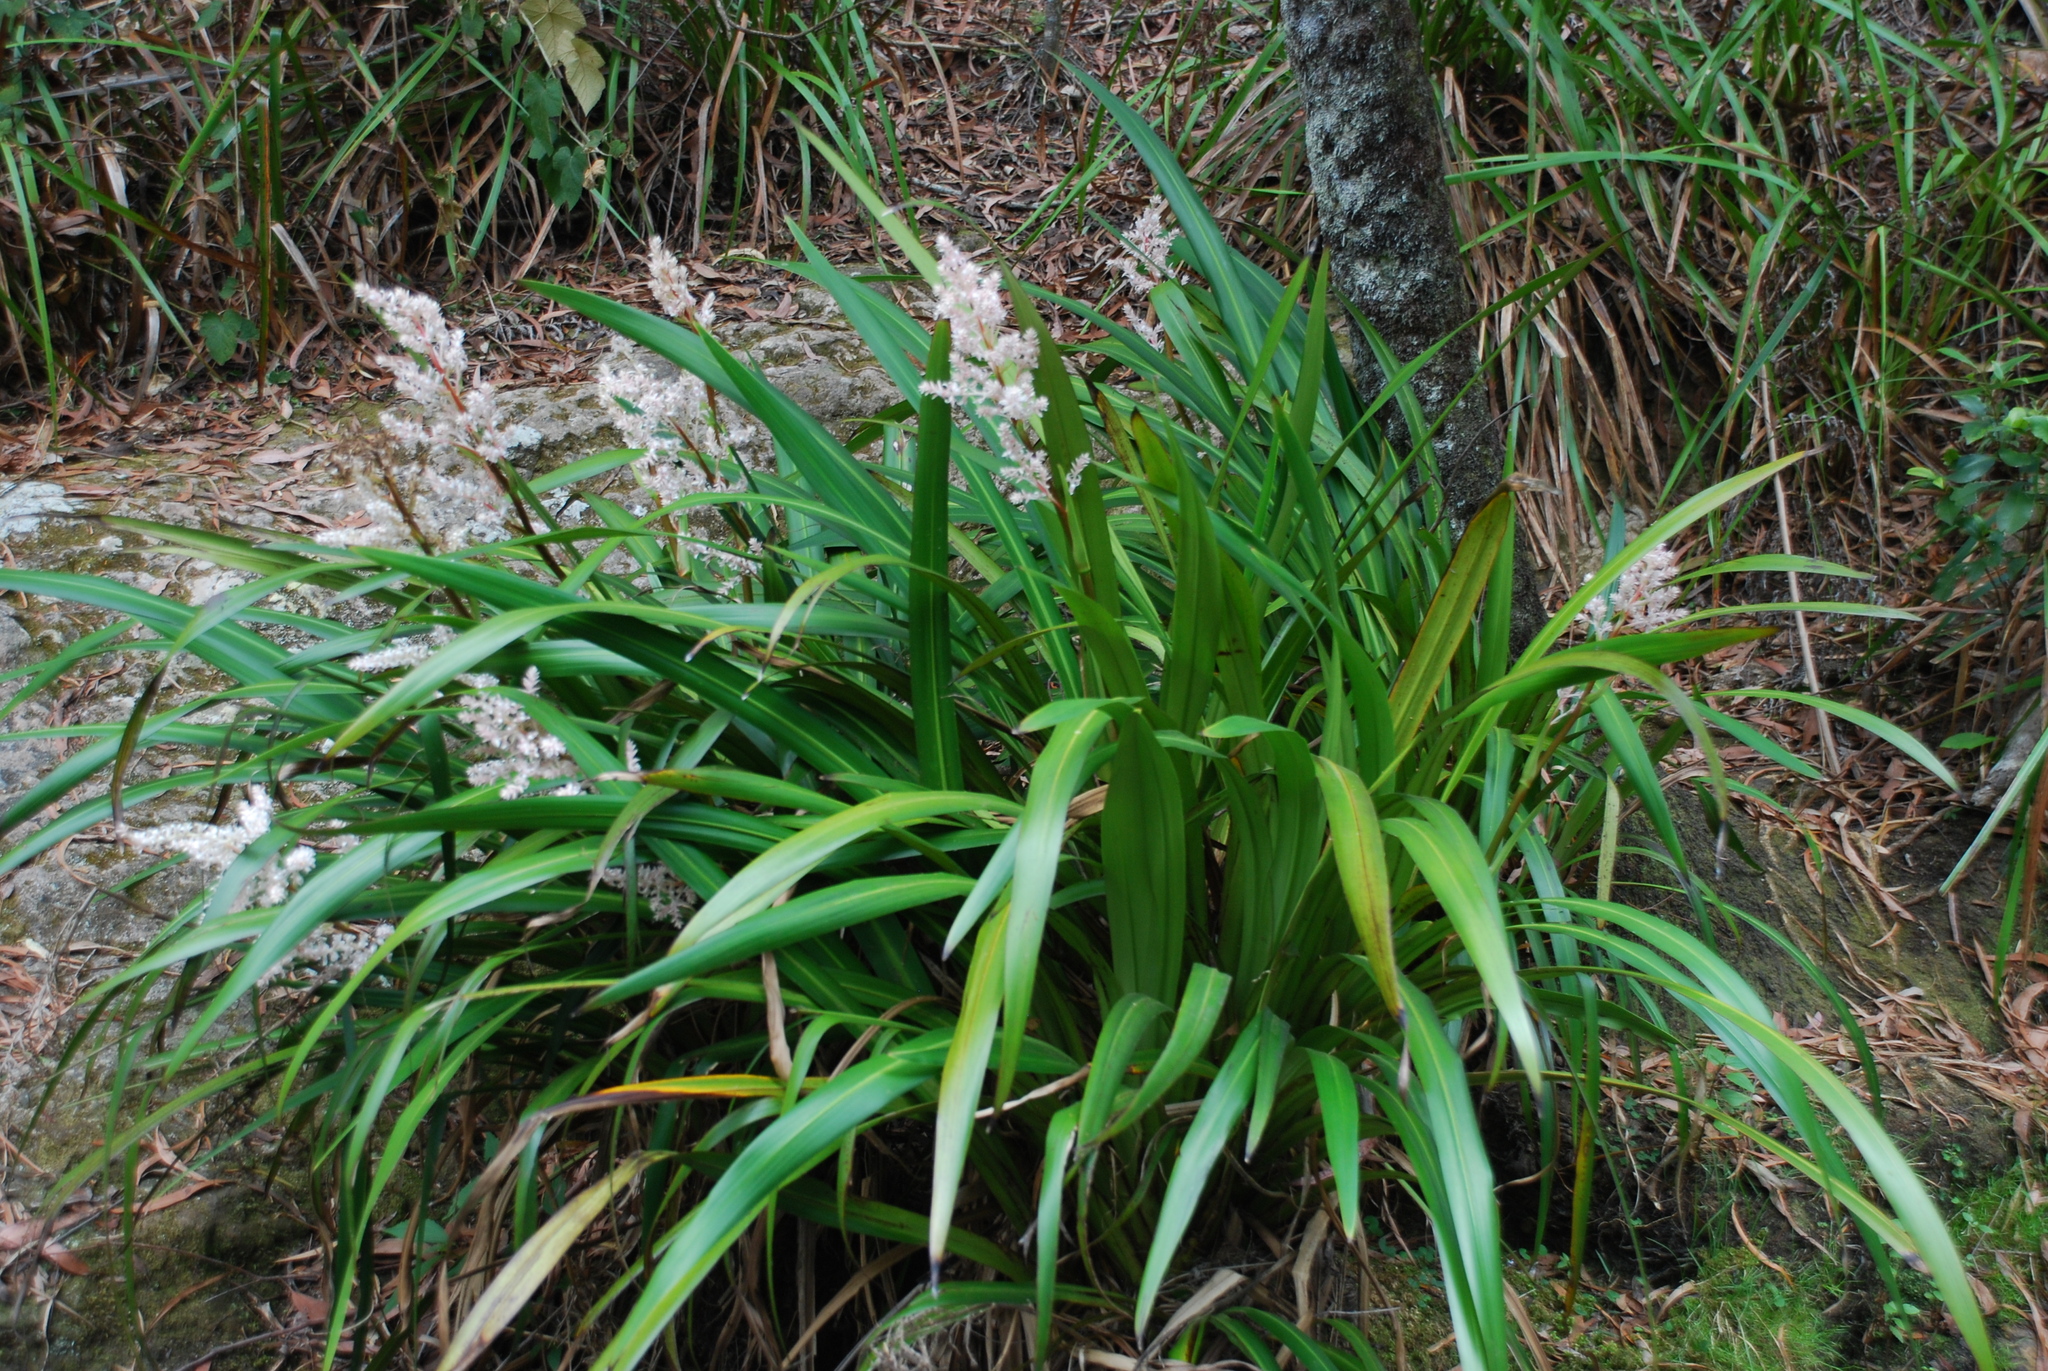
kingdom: Plantae
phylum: Tracheophyta
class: Liliopsida
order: Commelinales
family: Philydraceae
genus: Helmholtzia
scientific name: Helmholtzia glaberrima
